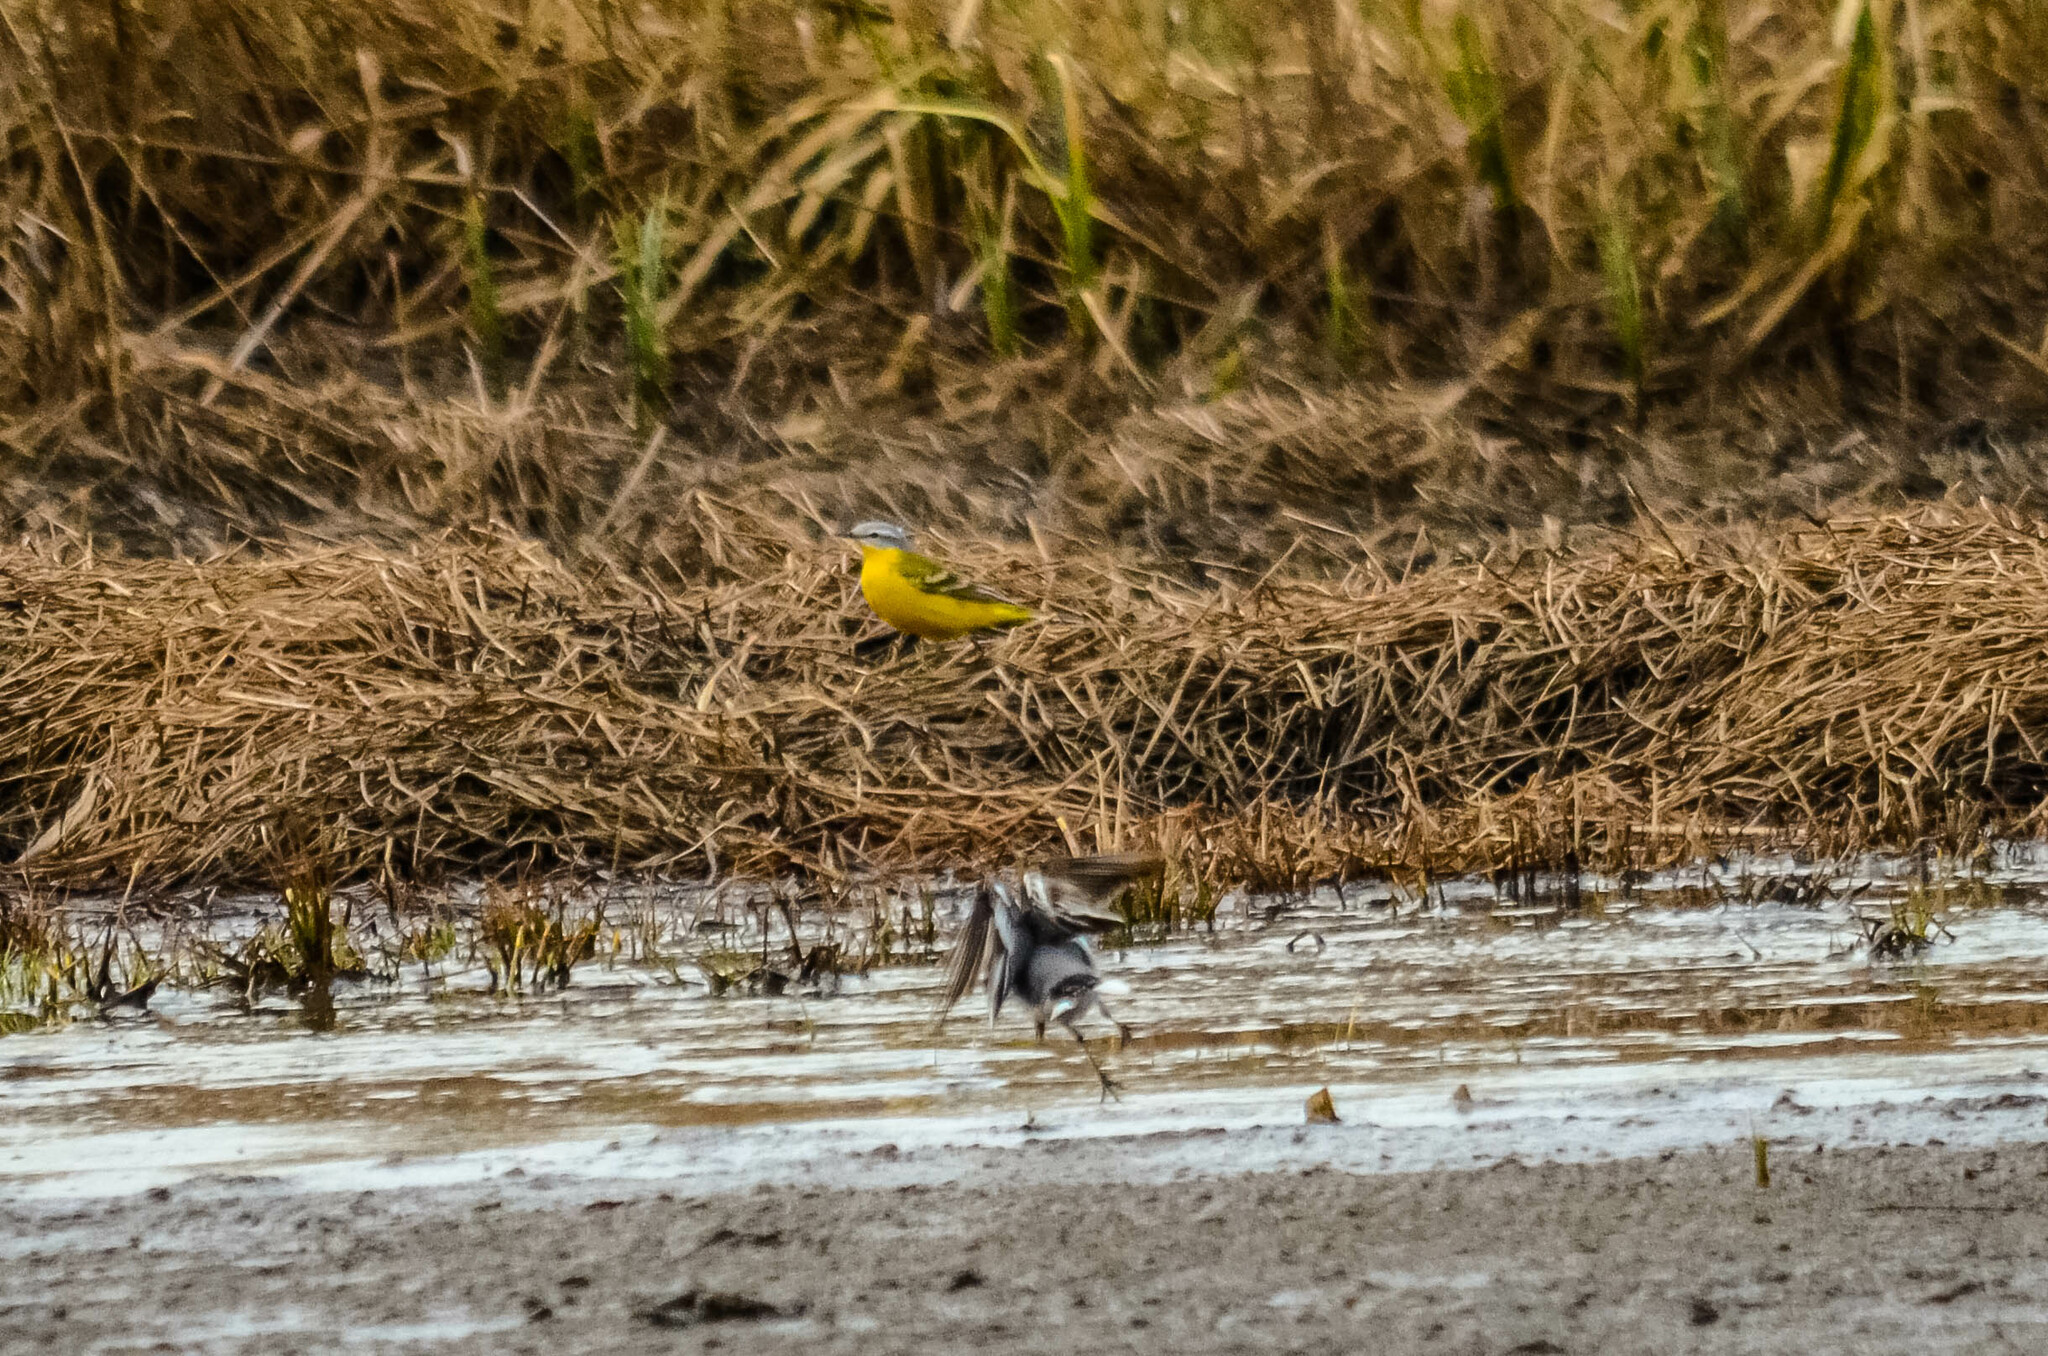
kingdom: Animalia
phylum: Chordata
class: Aves
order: Passeriformes
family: Motacillidae
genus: Motacilla
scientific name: Motacilla flava
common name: Western yellow wagtail
